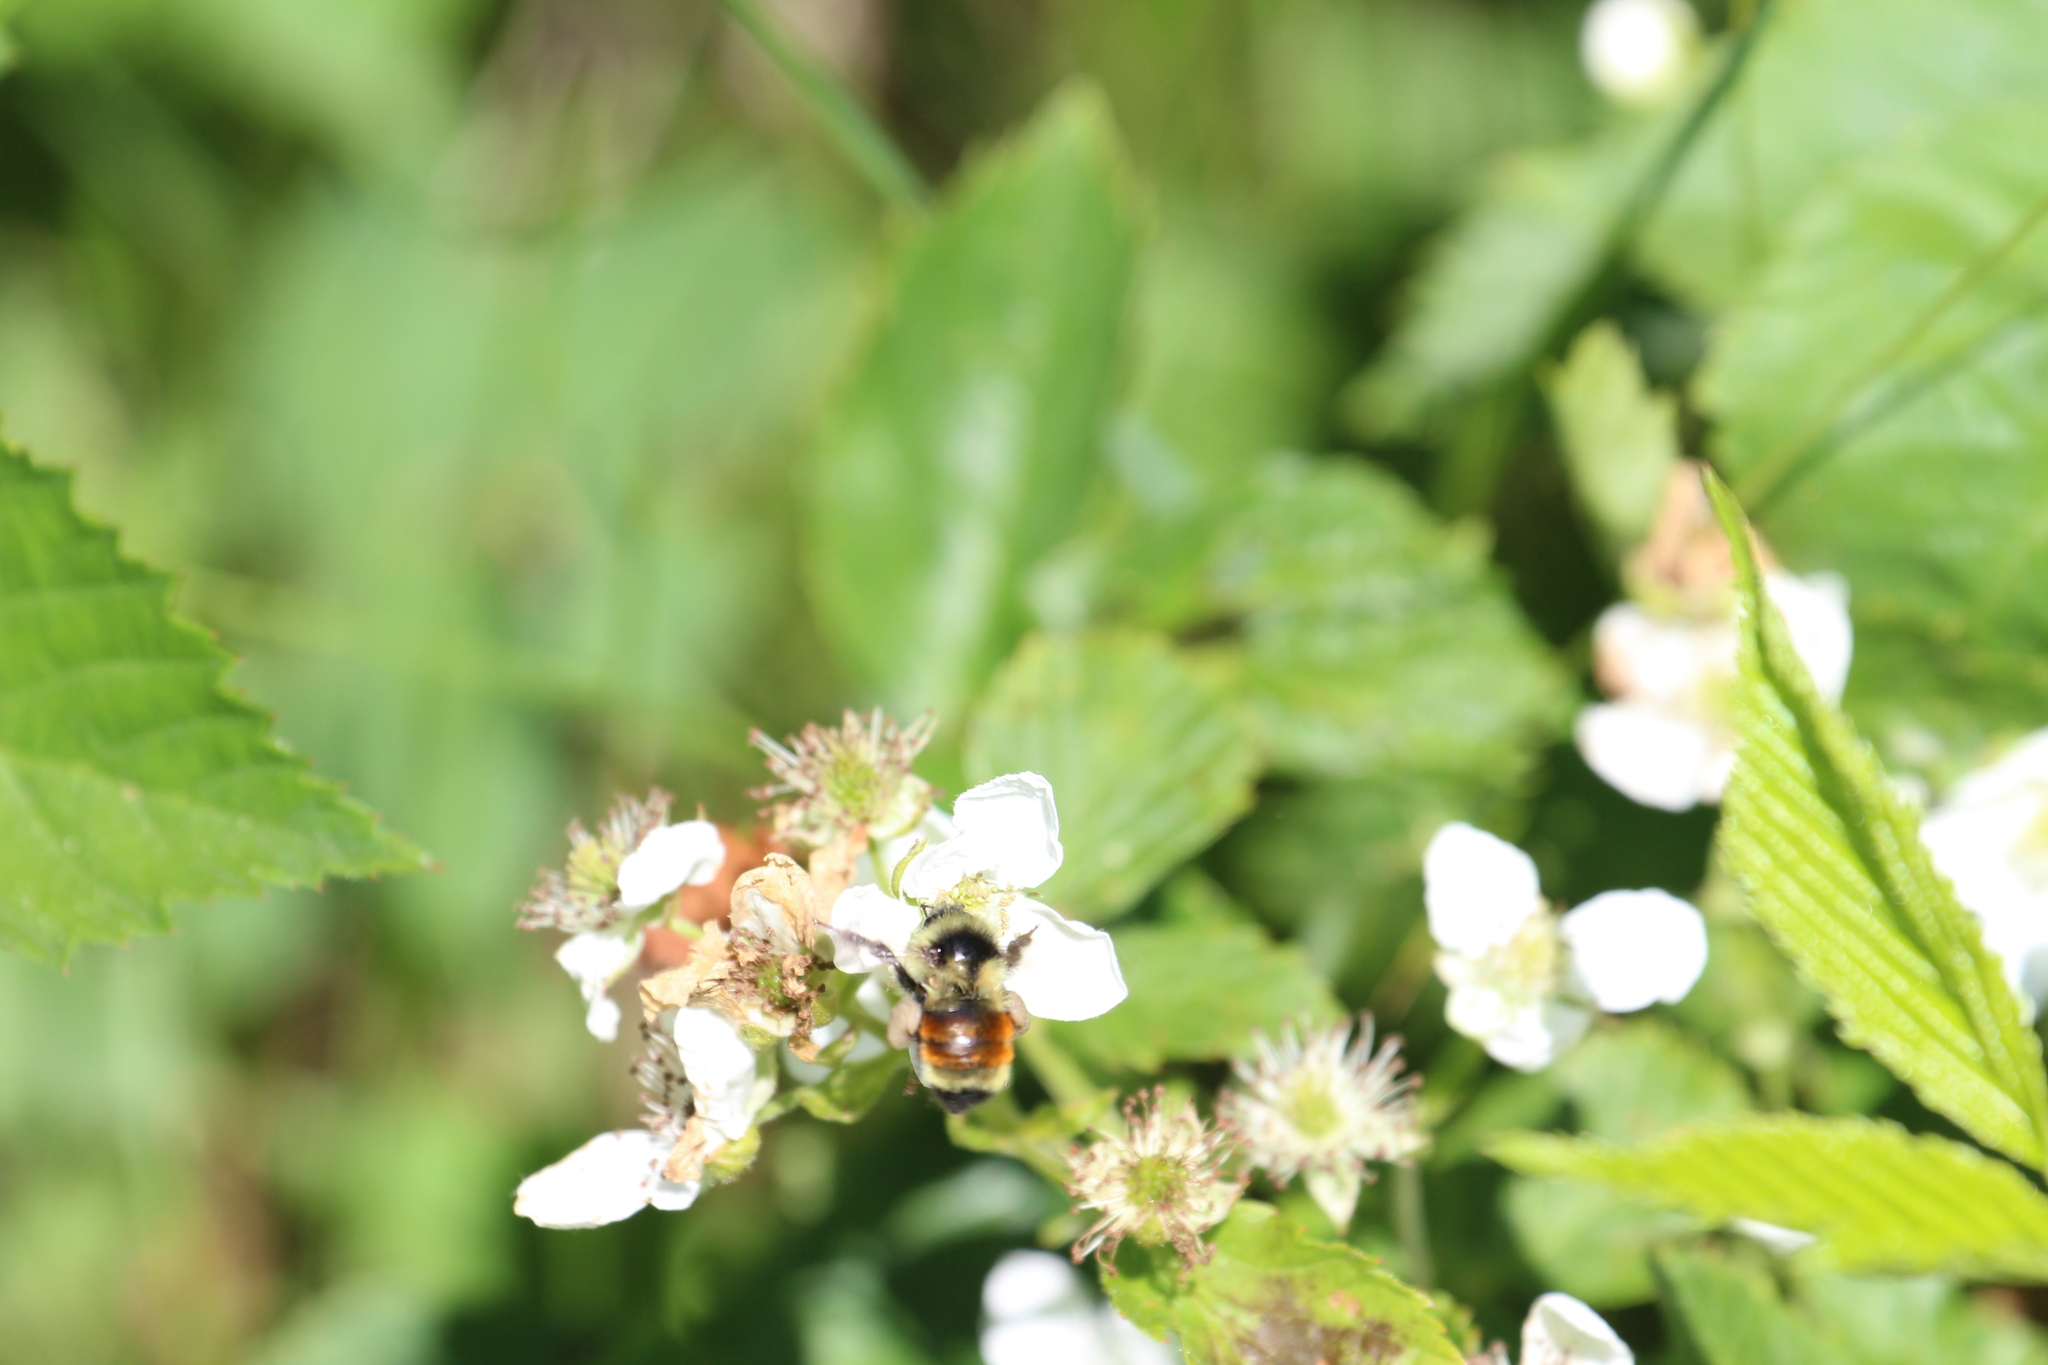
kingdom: Animalia
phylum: Arthropoda
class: Insecta
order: Hymenoptera
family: Apidae
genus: Bombus
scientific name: Bombus ternarius
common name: Tri-colored bumble bee
